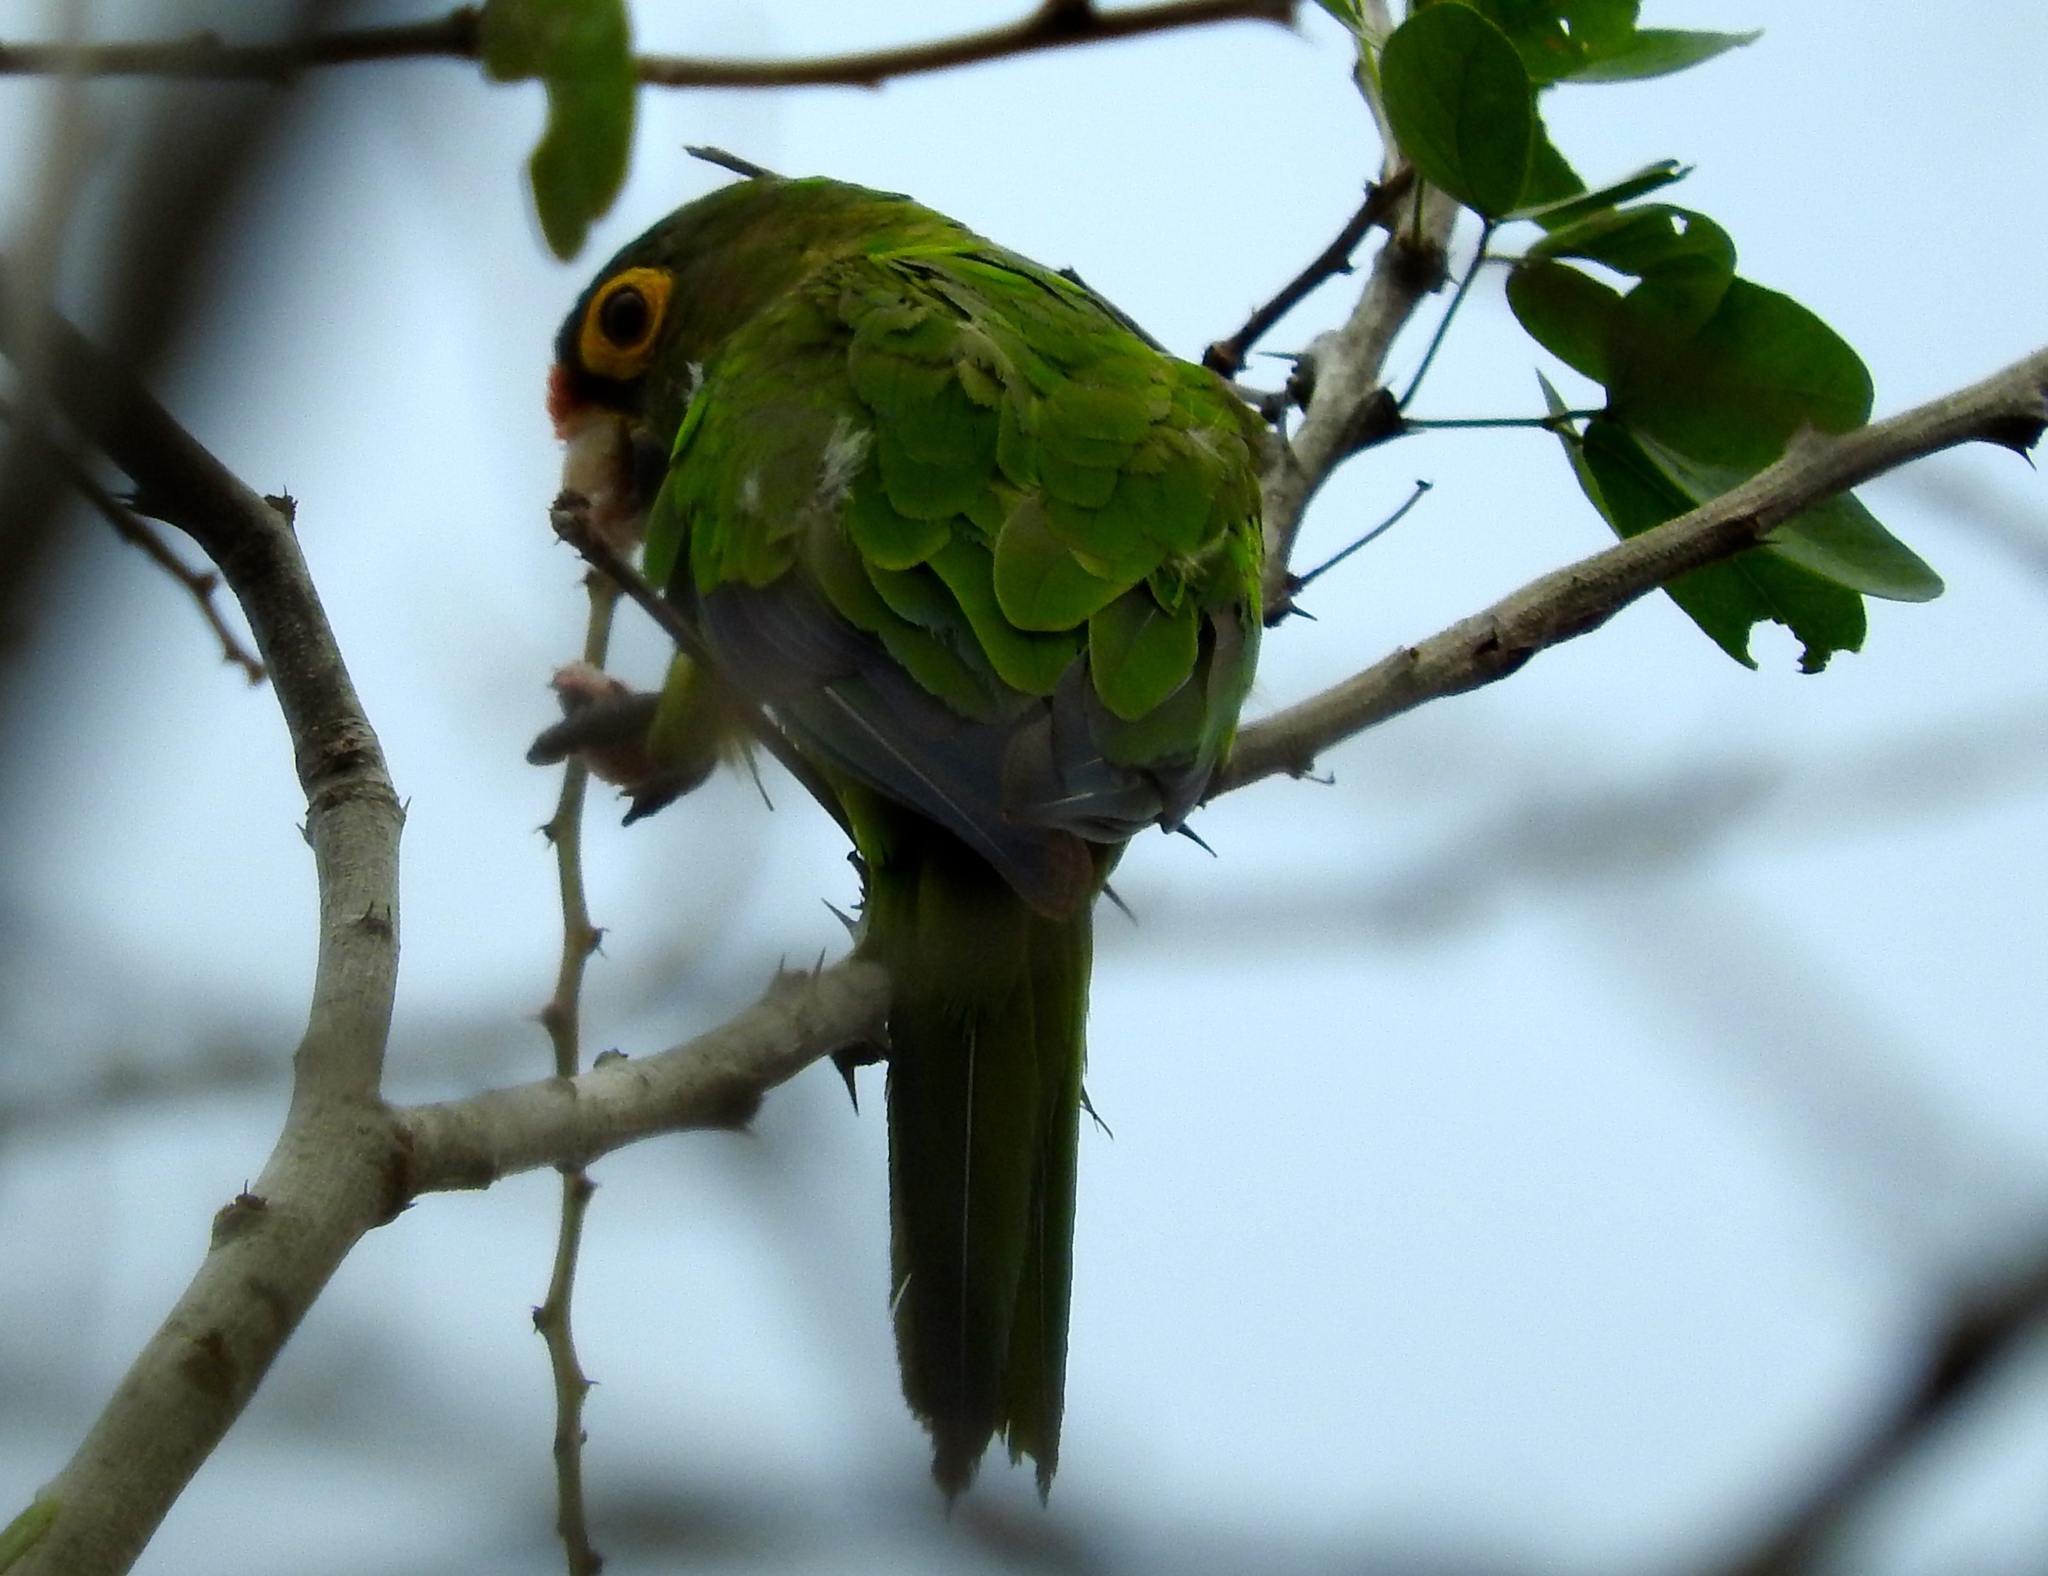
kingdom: Animalia
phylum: Chordata
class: Aves
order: Psittaciformes
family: Psittacidae
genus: Aratinga
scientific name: Aratinga canicularis
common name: Orange-fronted parakeet
